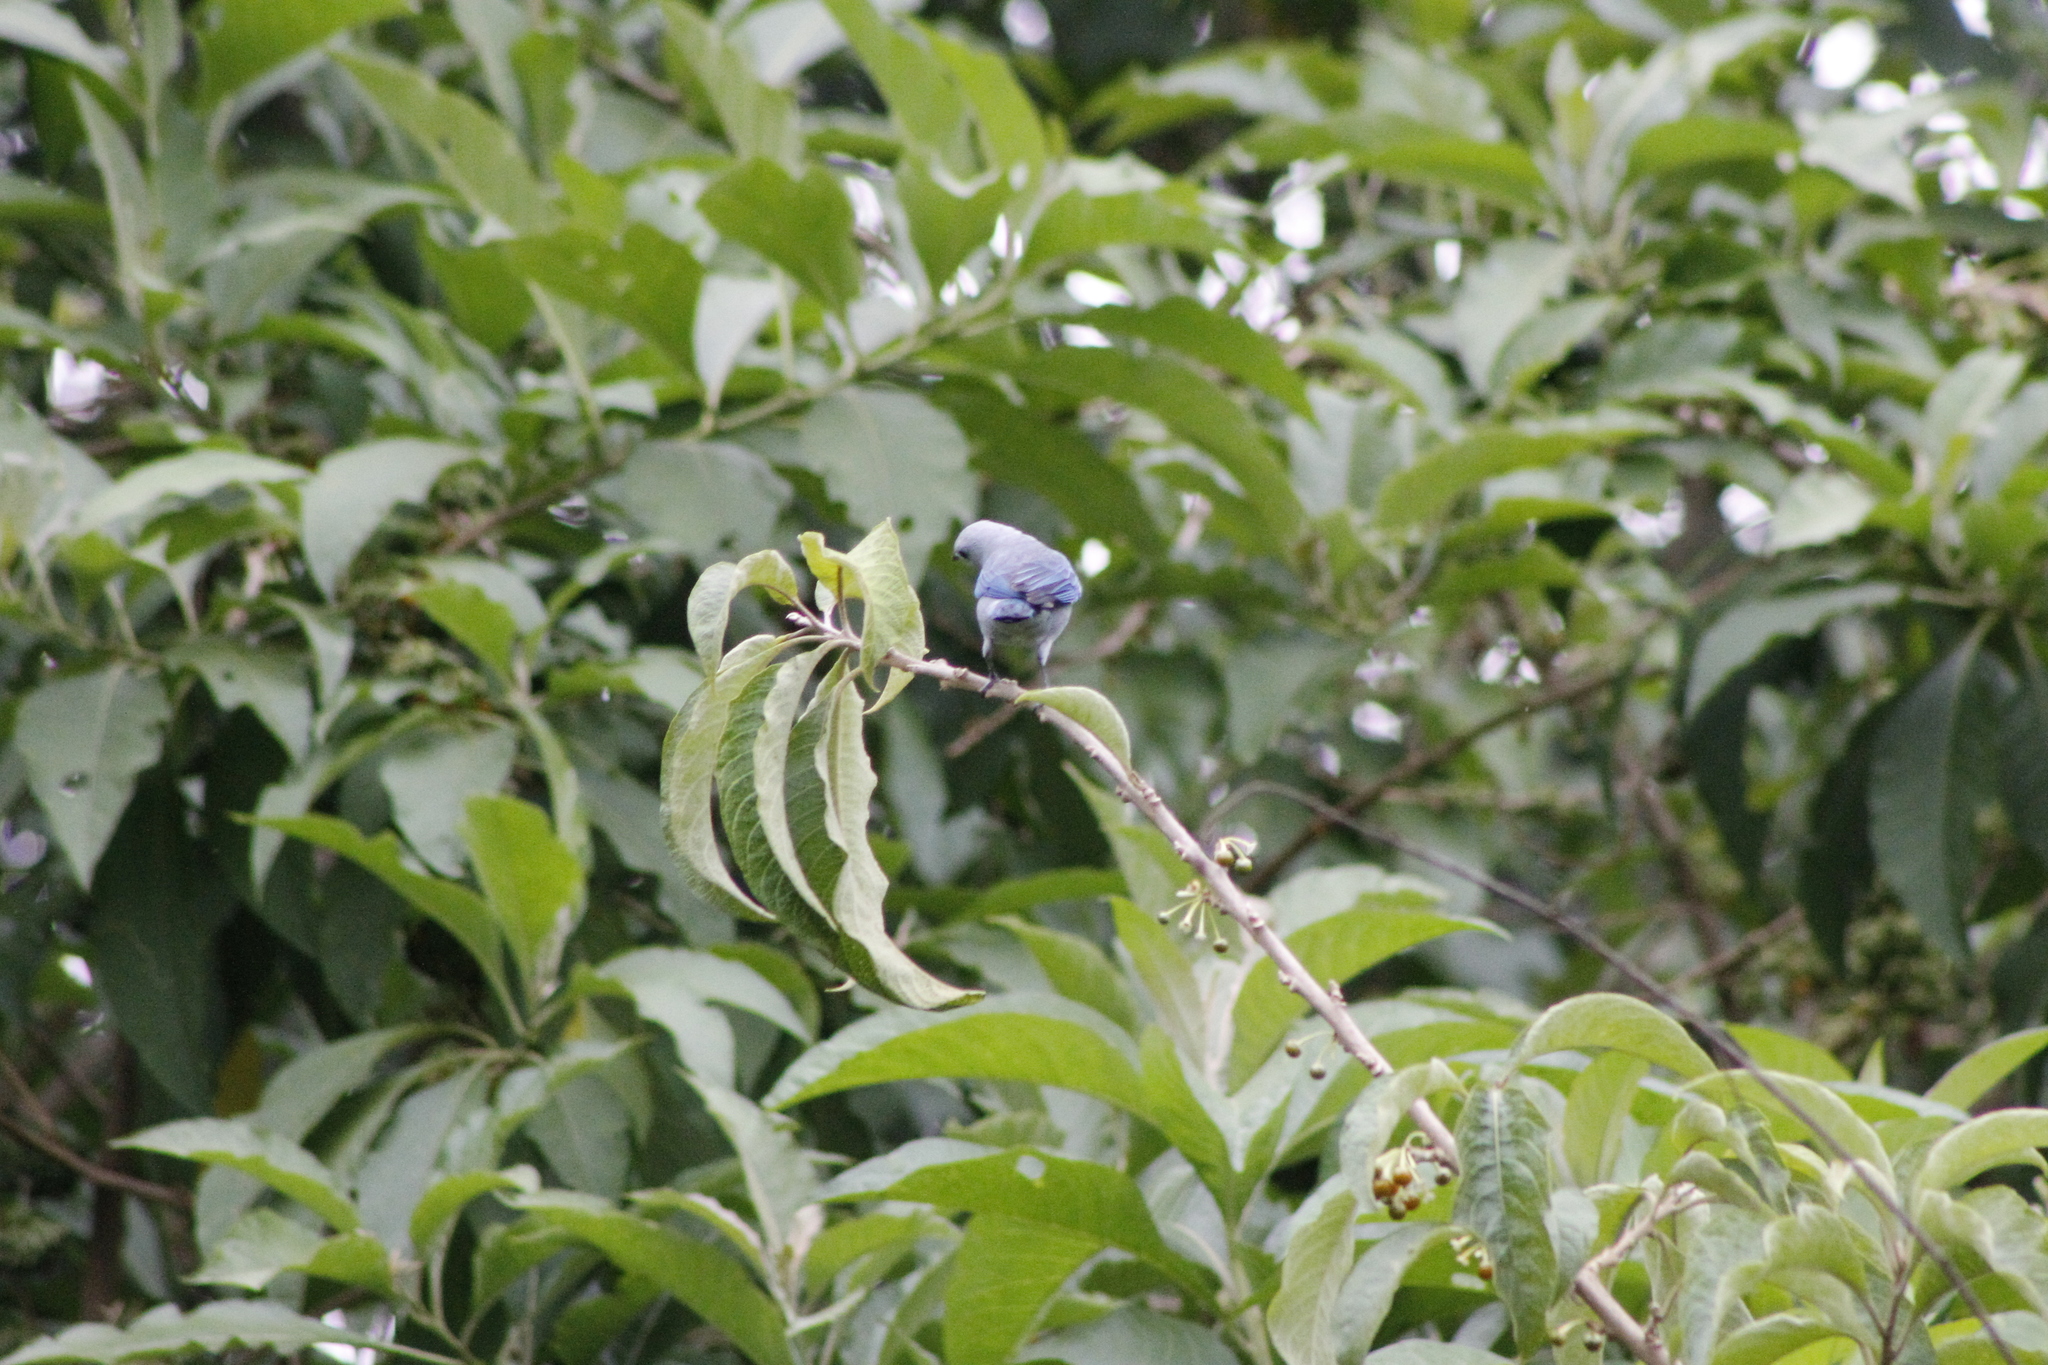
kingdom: Animalia
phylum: Chordata
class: Aves
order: Passeriformes
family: Thraupidae
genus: Thraupis
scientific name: Thraupis episcopus
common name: Blue-grey tanager
